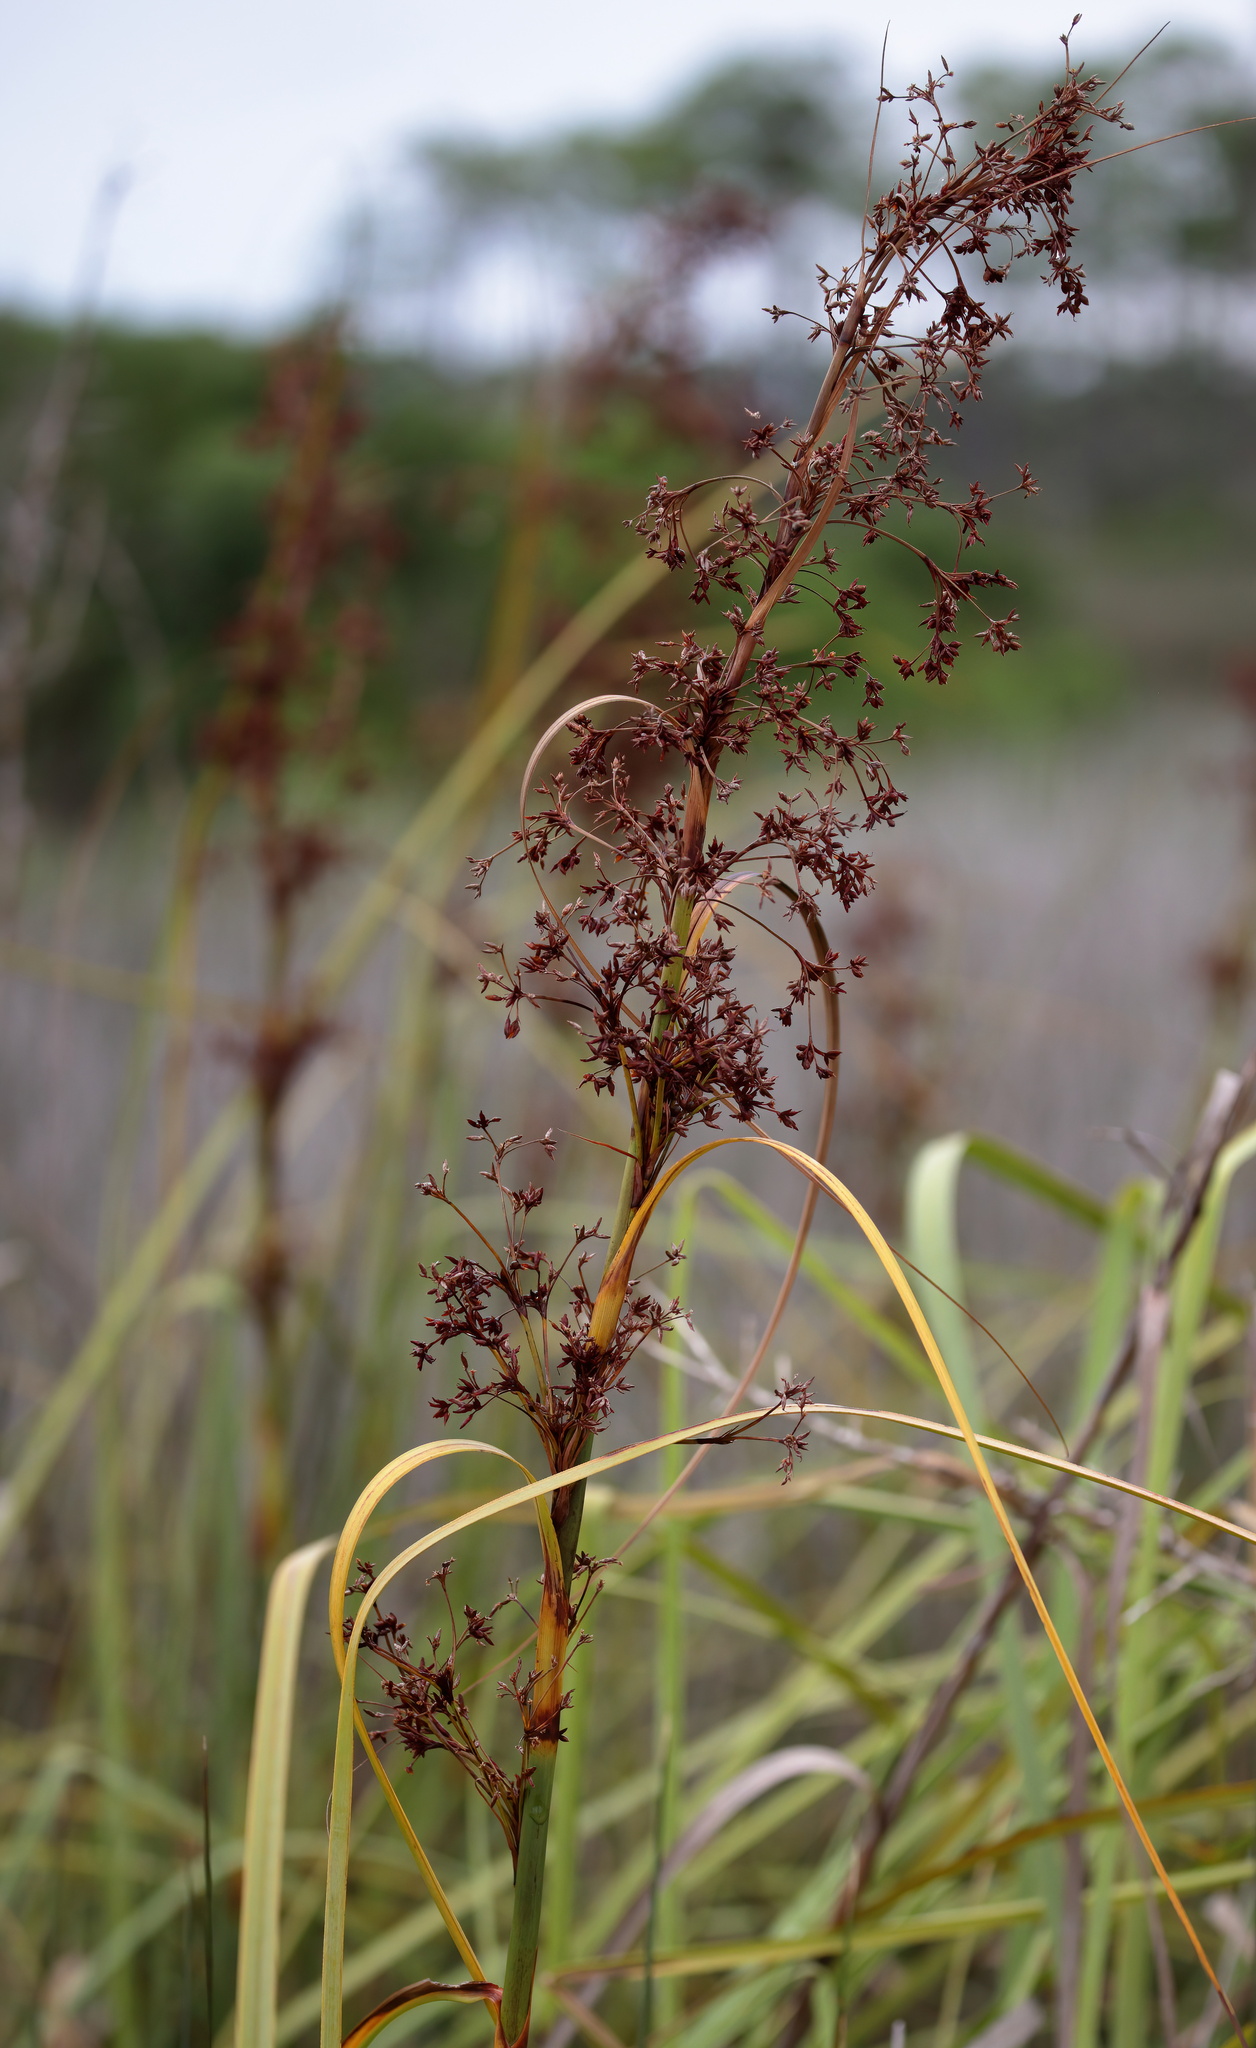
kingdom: Plantae
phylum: Tracheophyta
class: Liliopsida
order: Poales
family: Cyperaceae
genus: Cladium
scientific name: Cladium mariscus
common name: Great fen-sedge
